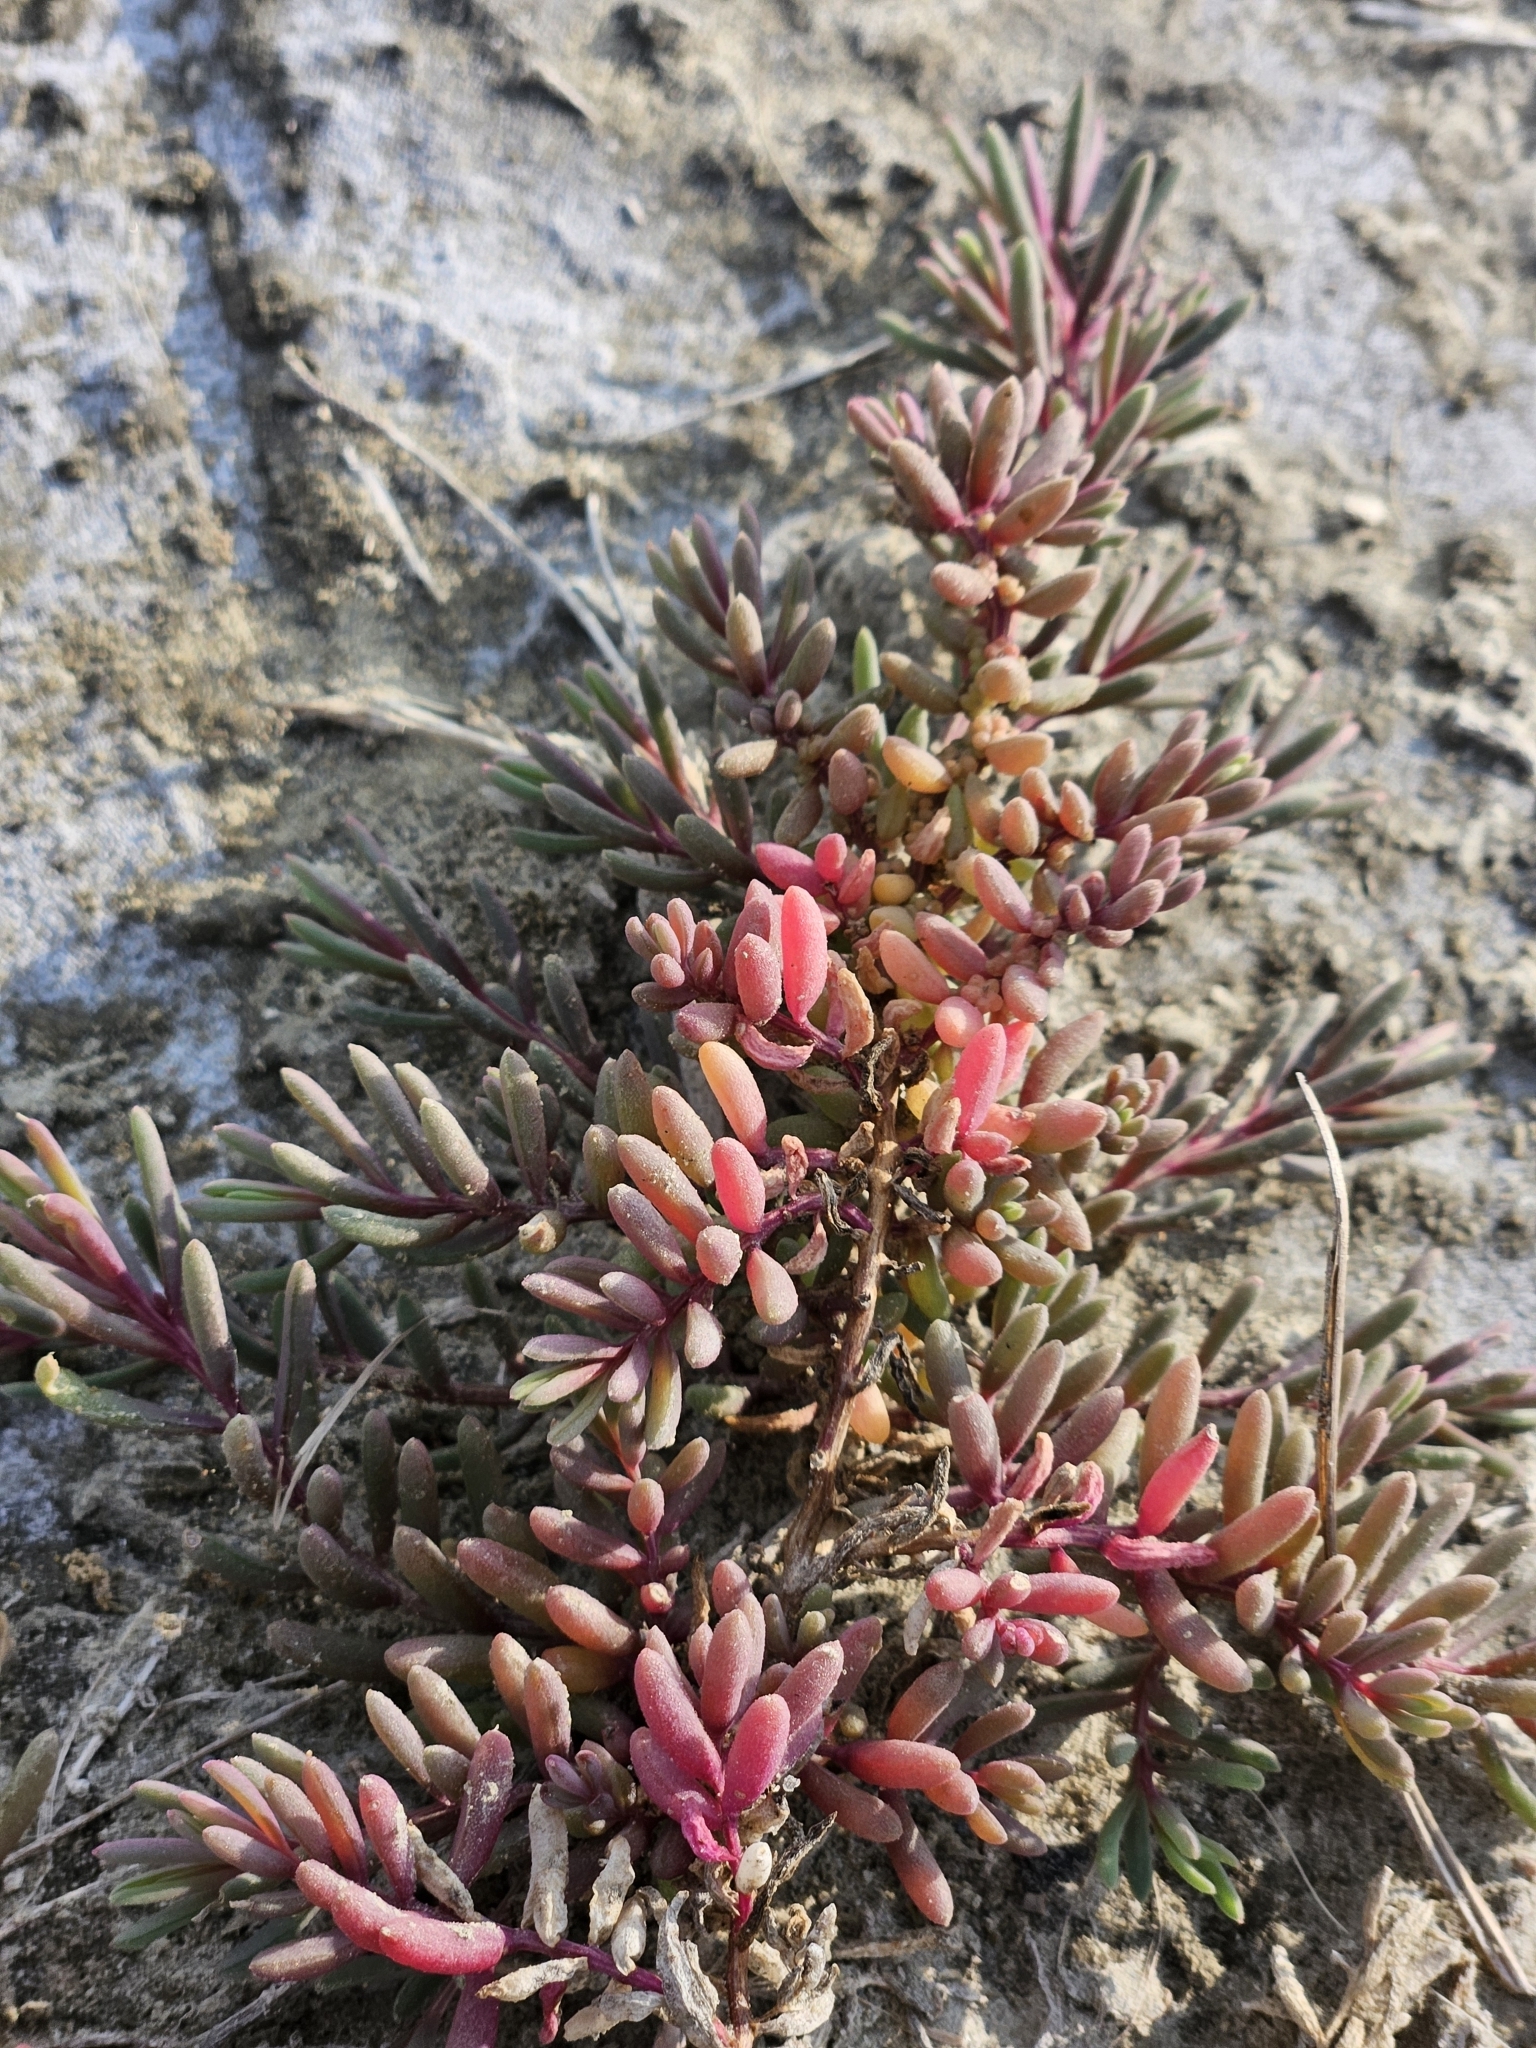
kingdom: Plantae
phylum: Tracheophyta
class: Magnoliopsida
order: Caryophyllales
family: Amaranthaceae
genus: Suaeda
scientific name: Suaeda maritima
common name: Annual sea-blite
